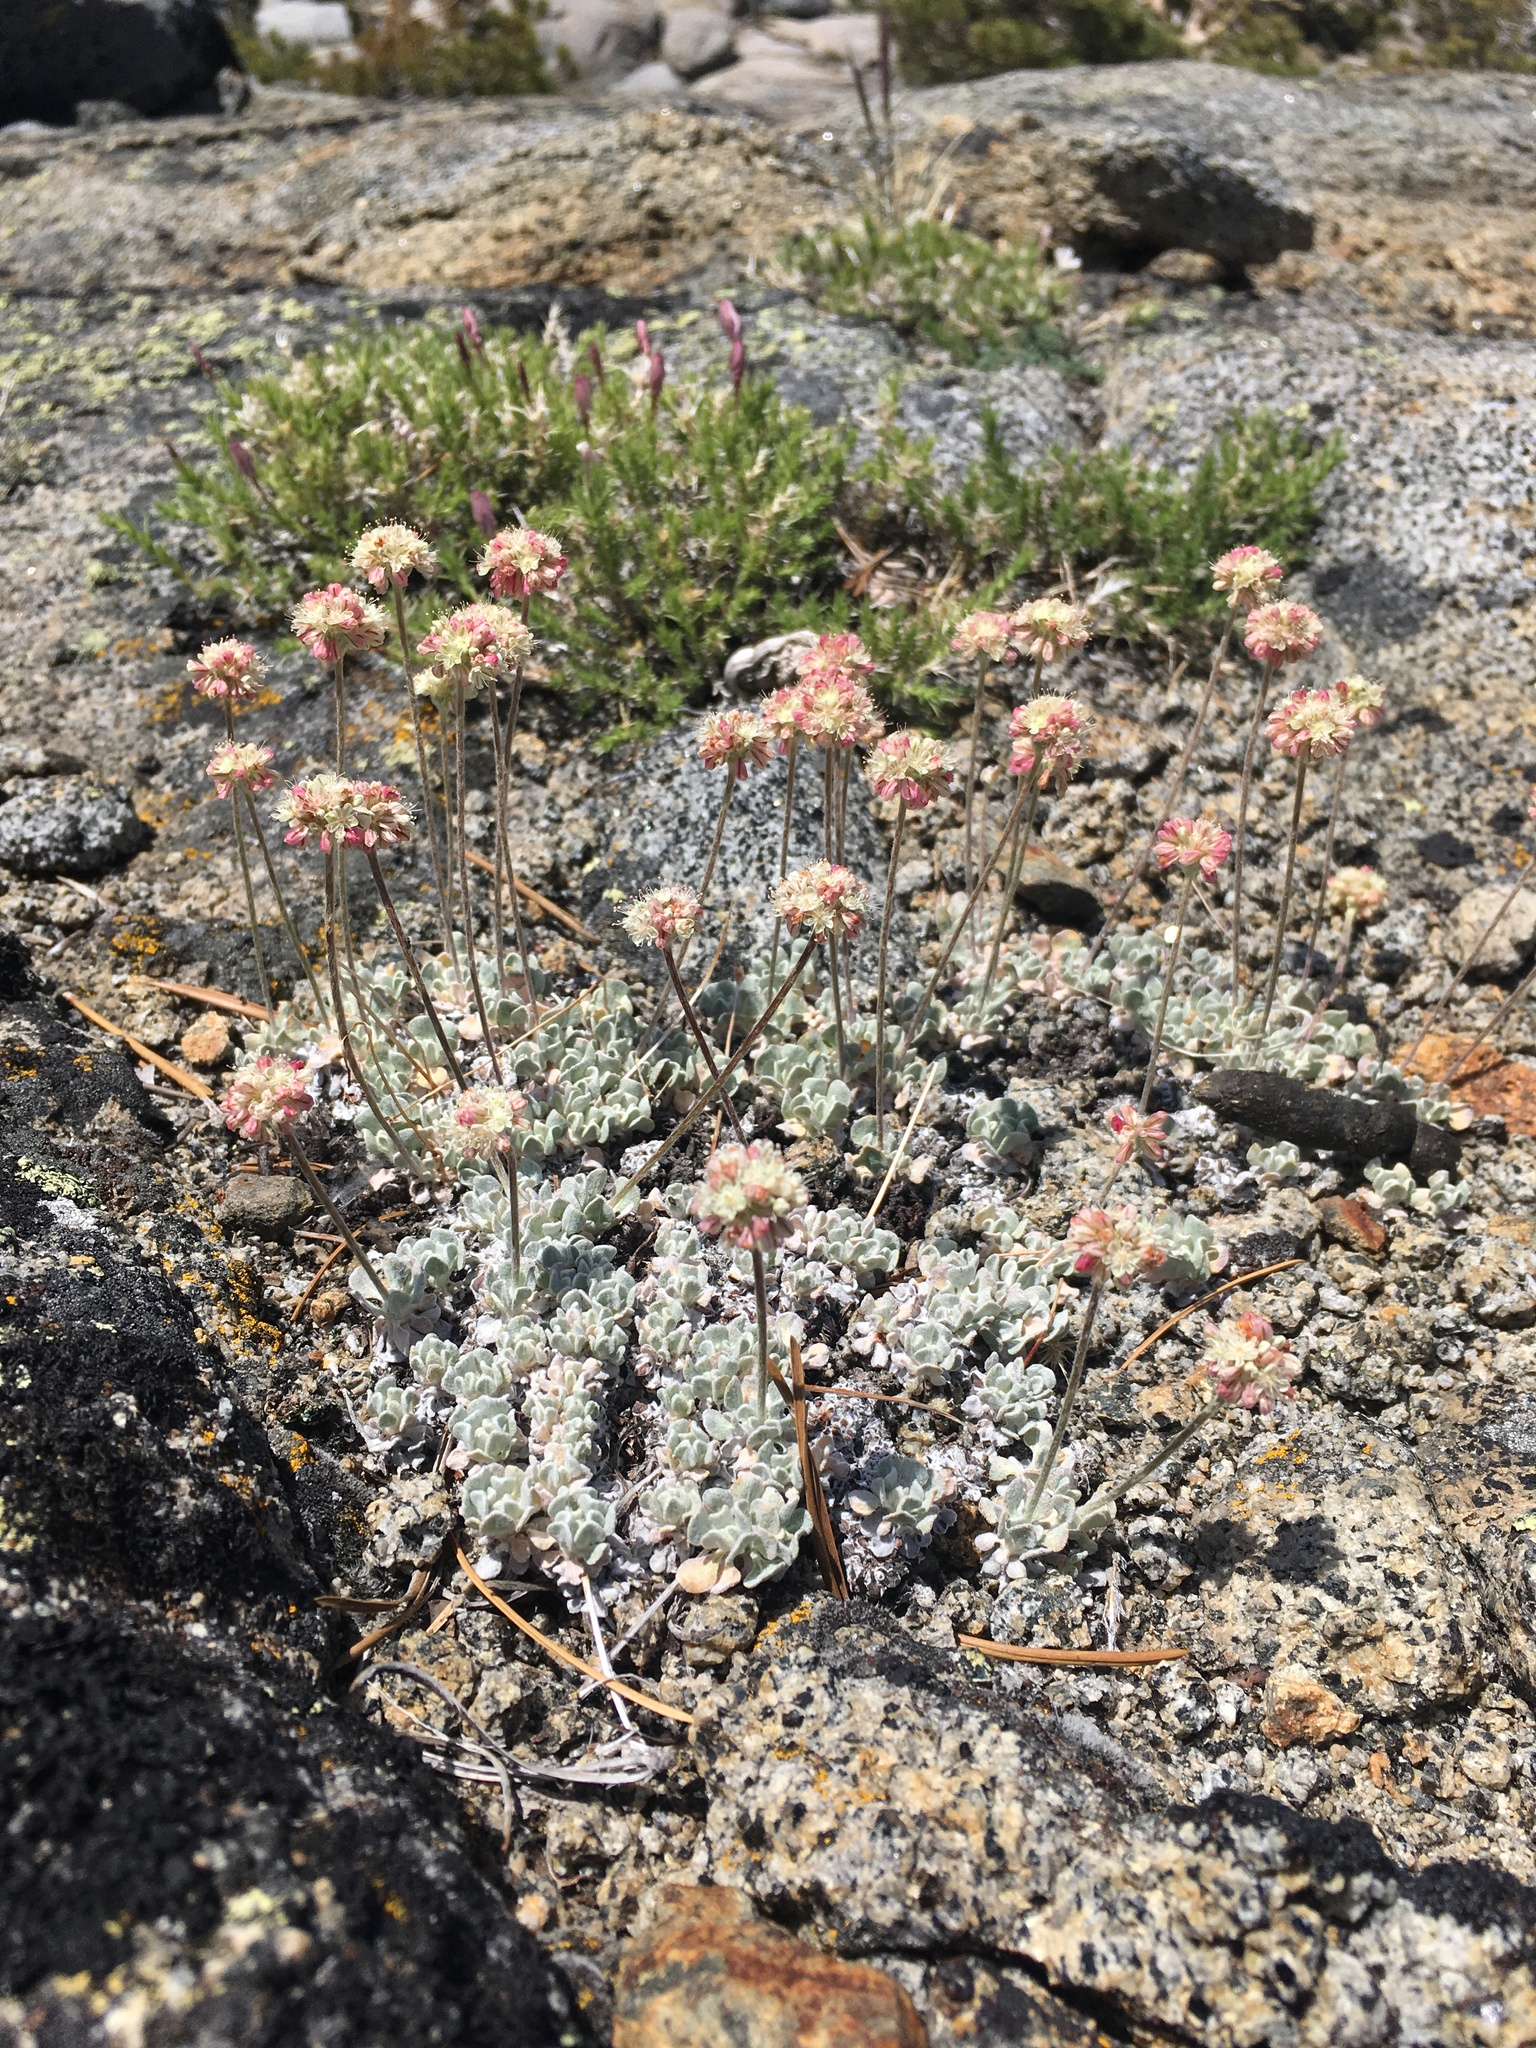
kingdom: Plantae
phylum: Tracheophyta
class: Magnoliopsida
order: Caryophyllales
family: Polygonaceae
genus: Eriogonum
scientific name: Eriogonum ovalifolium
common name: Cushion buckwheat
